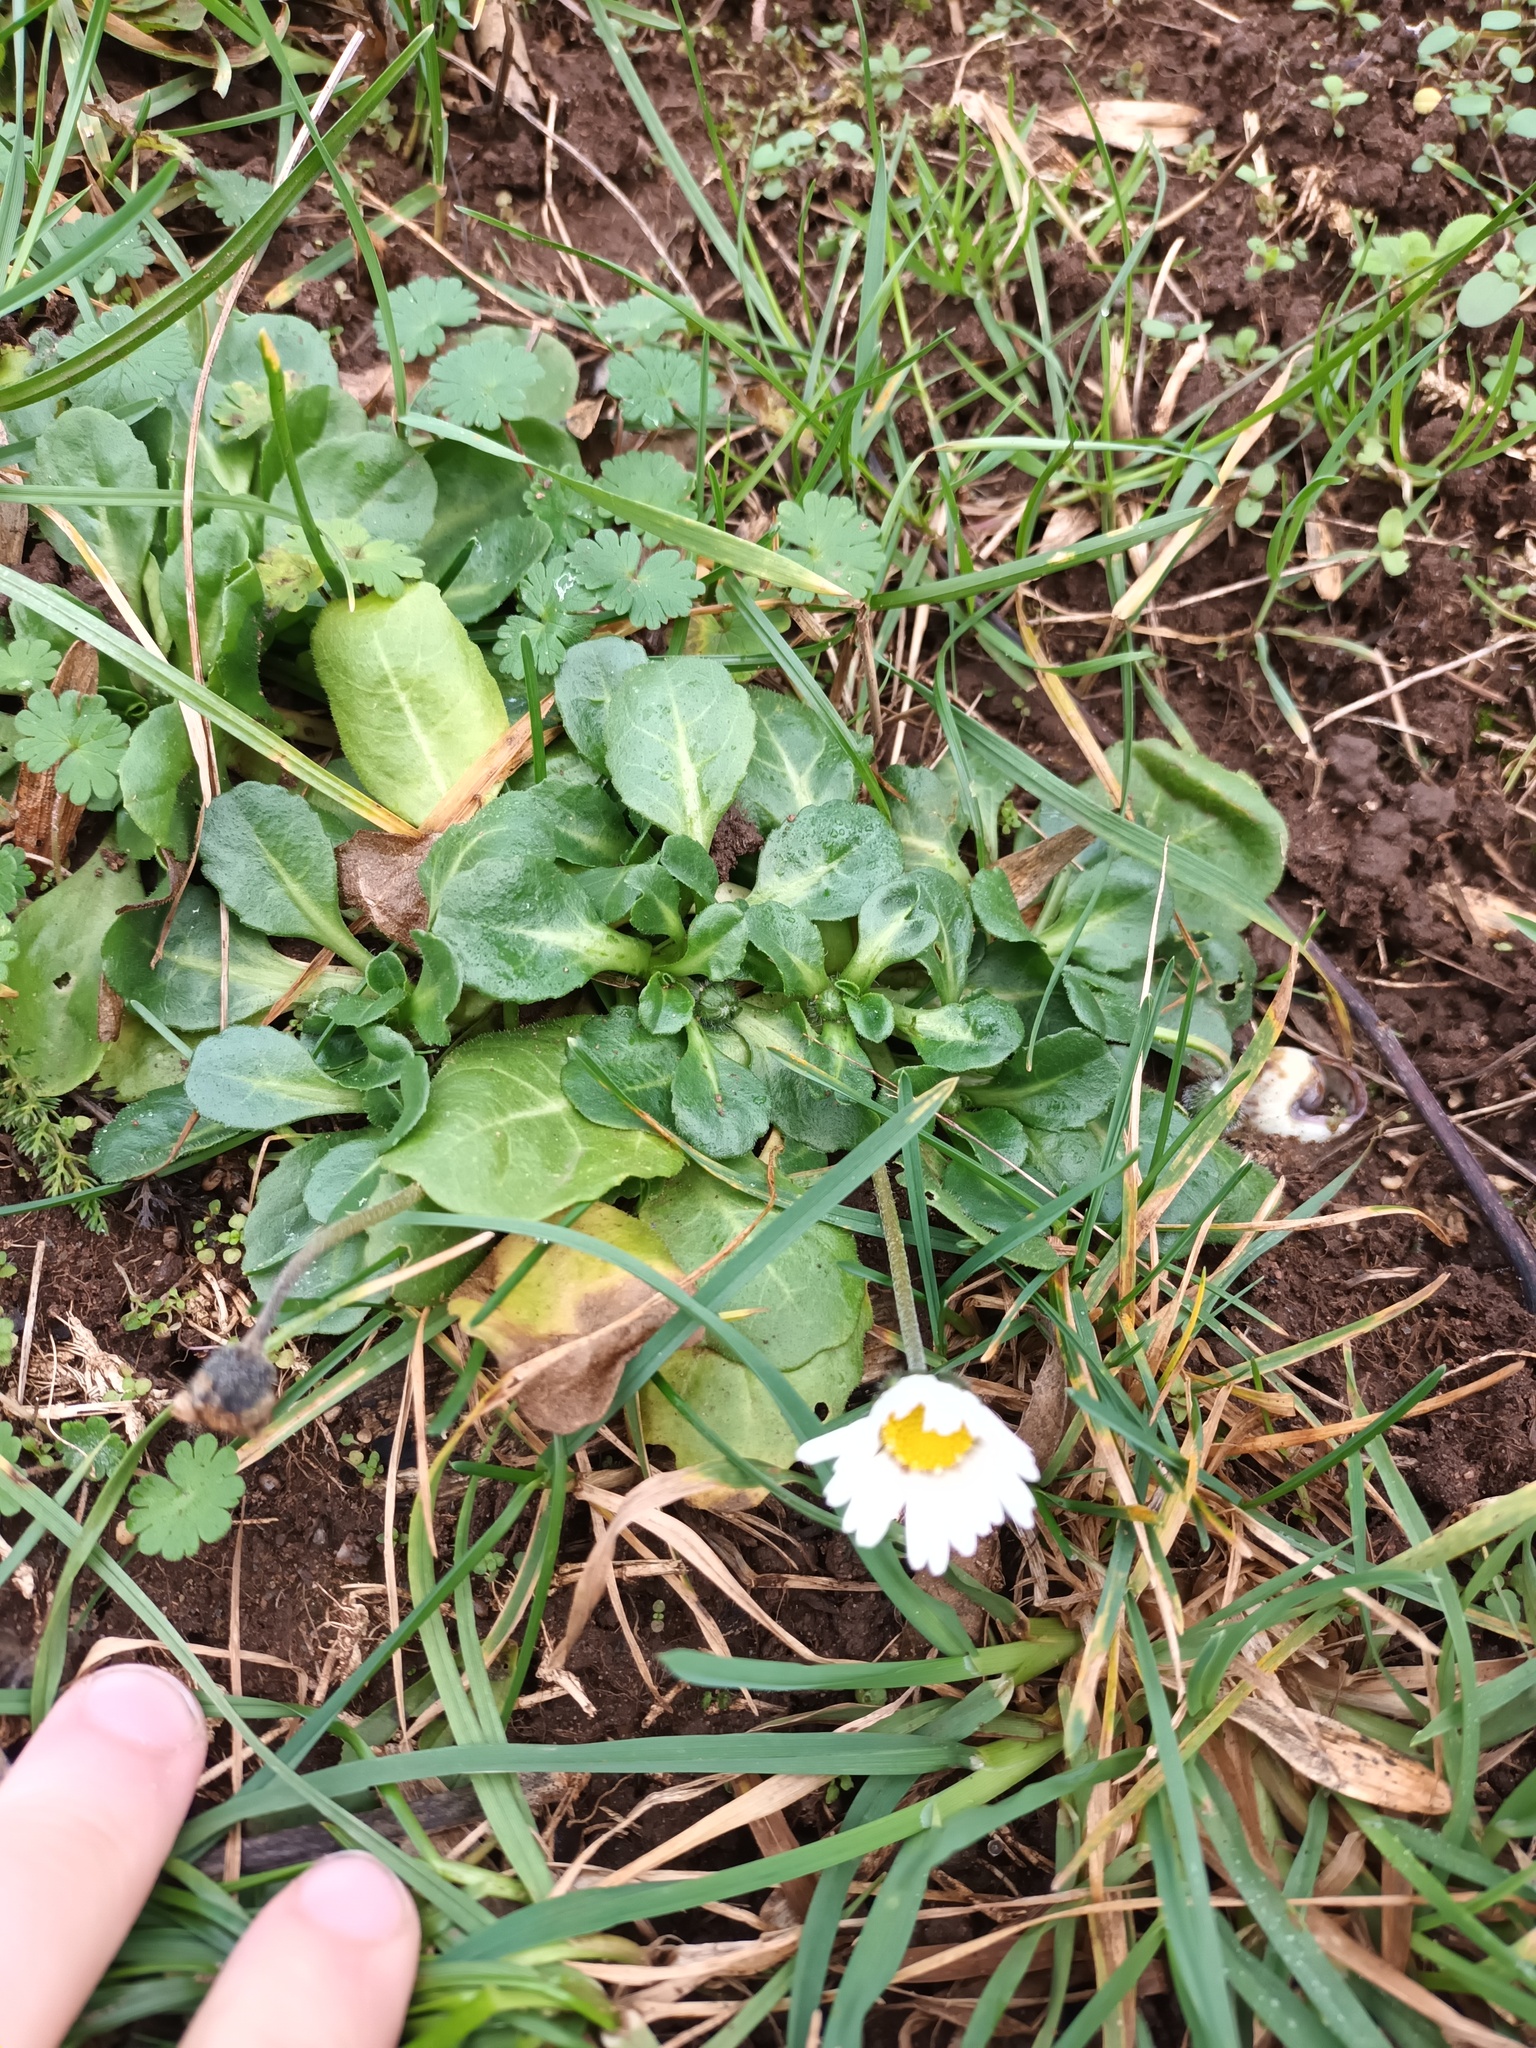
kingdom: Plantae
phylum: Tracheophyta
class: Magnoliopsida
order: Asterales
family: Asteraceae
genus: Bellis
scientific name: Bellis perennis
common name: Lawndaisy
